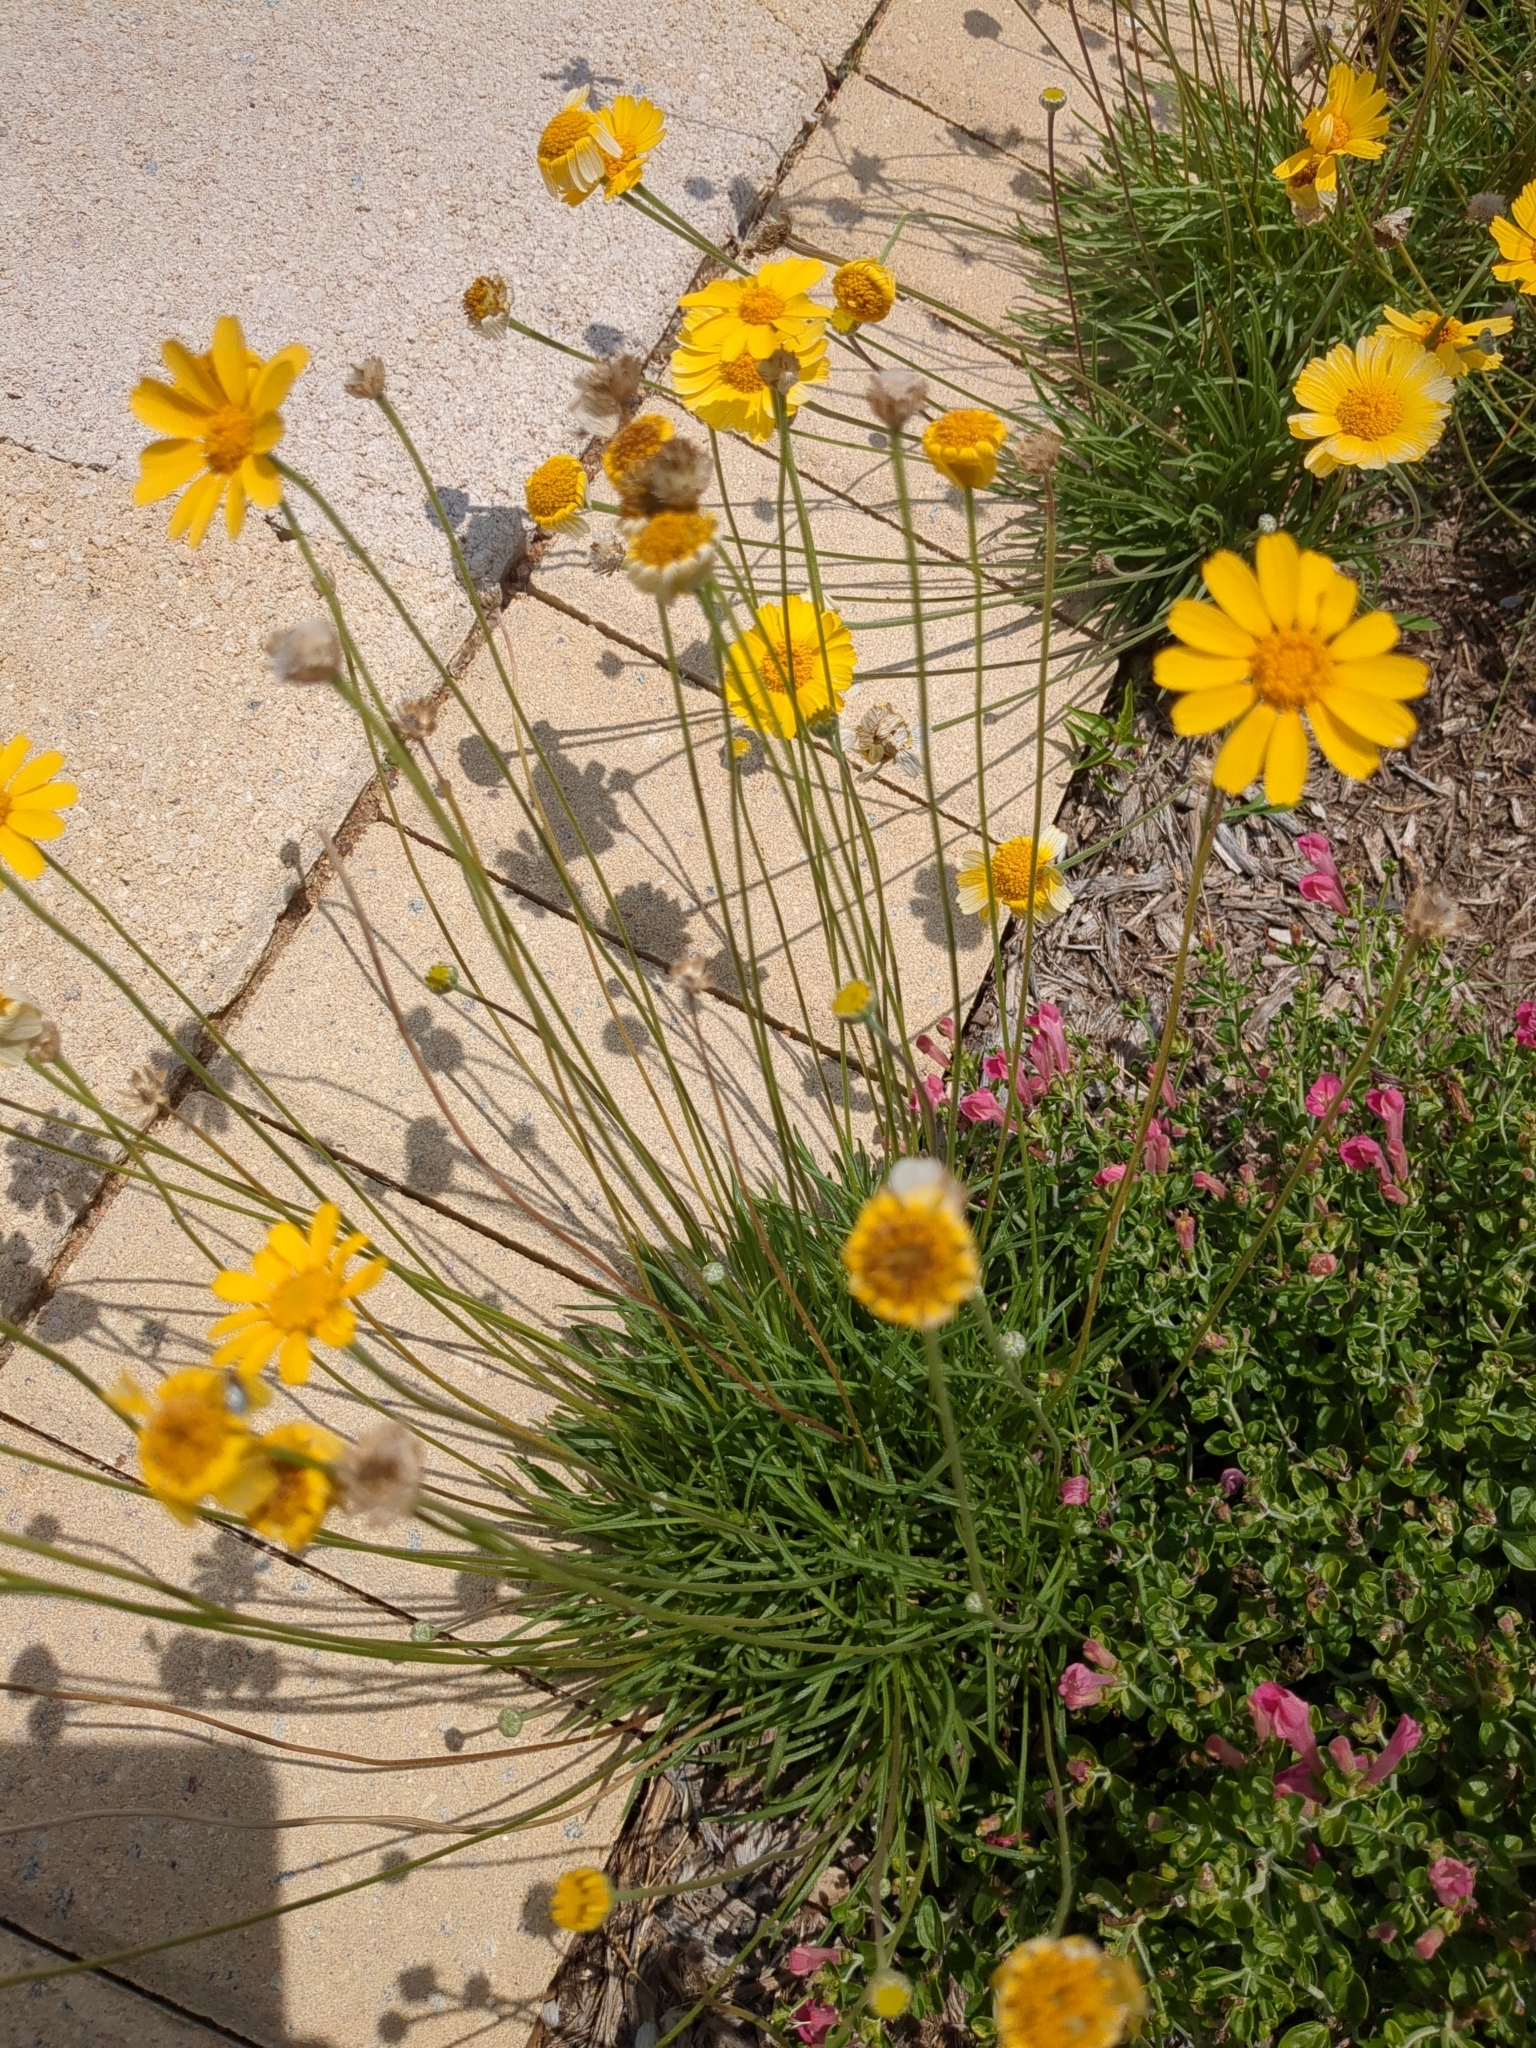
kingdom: Plantae
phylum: Tracheophyta
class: Magnoliopsida
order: Asterales
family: Asteraceae
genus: Tetraneuris
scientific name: Tetraneuris scaposa
